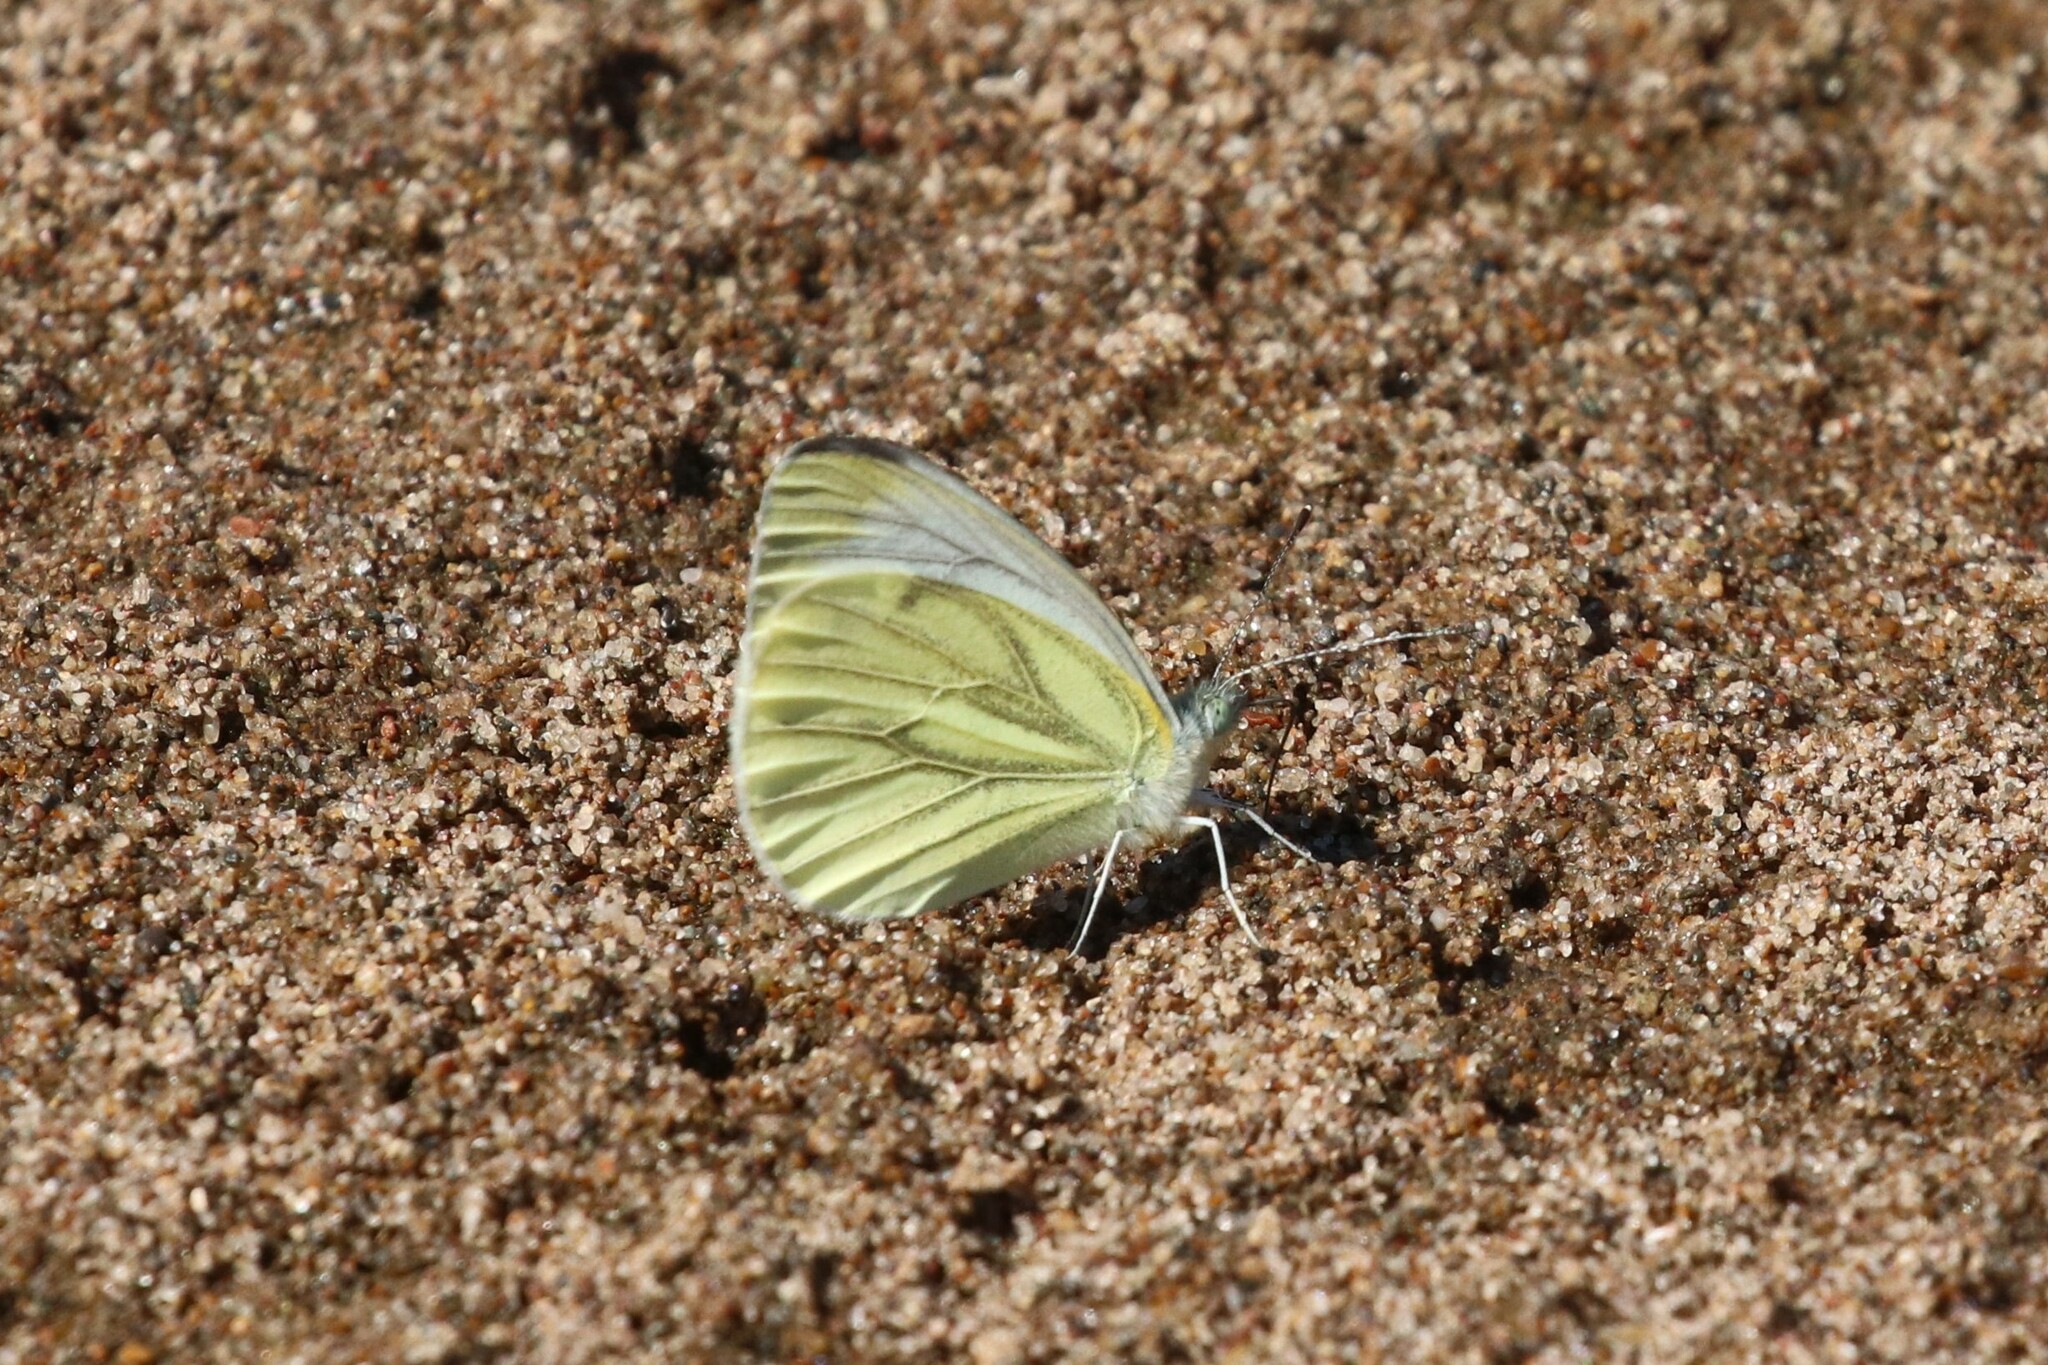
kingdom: Animalia
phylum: Arthropoda
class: Insecta
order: Lepidoptera
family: Pieridae
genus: Pieris
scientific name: Pieris napi
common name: Green-veined white
